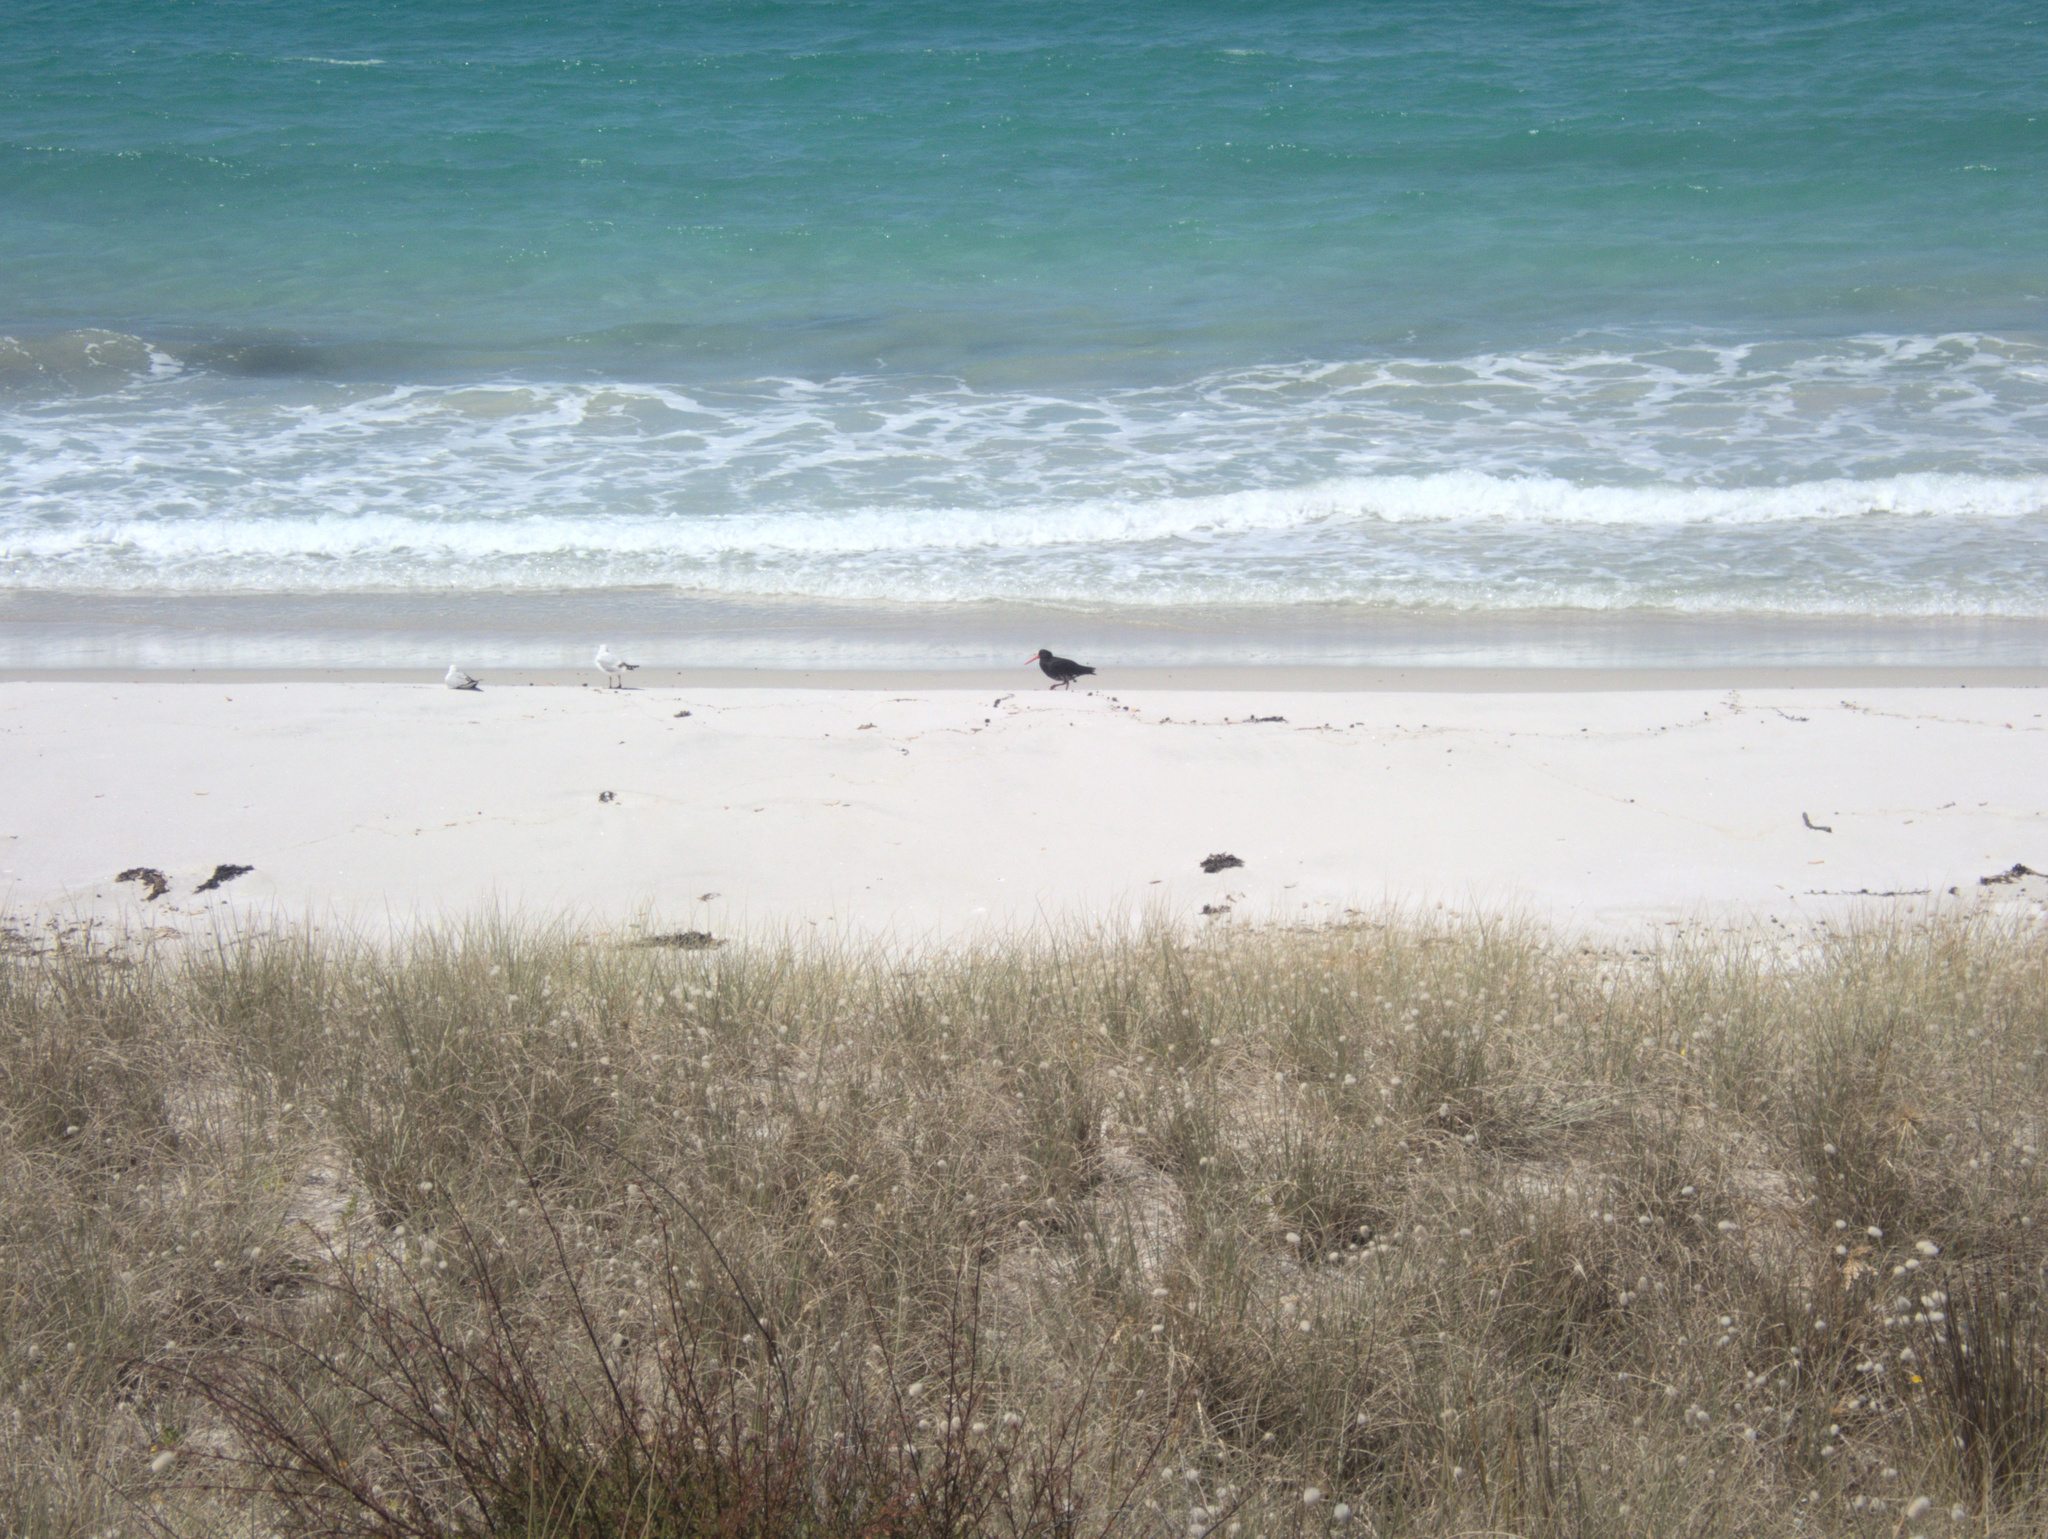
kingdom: Animalia
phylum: Chordata
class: Aves
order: Charadriiformes
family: Haematopodidae
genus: Haematopus
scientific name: Haematopus unicolor
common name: Variable oystercatcher
